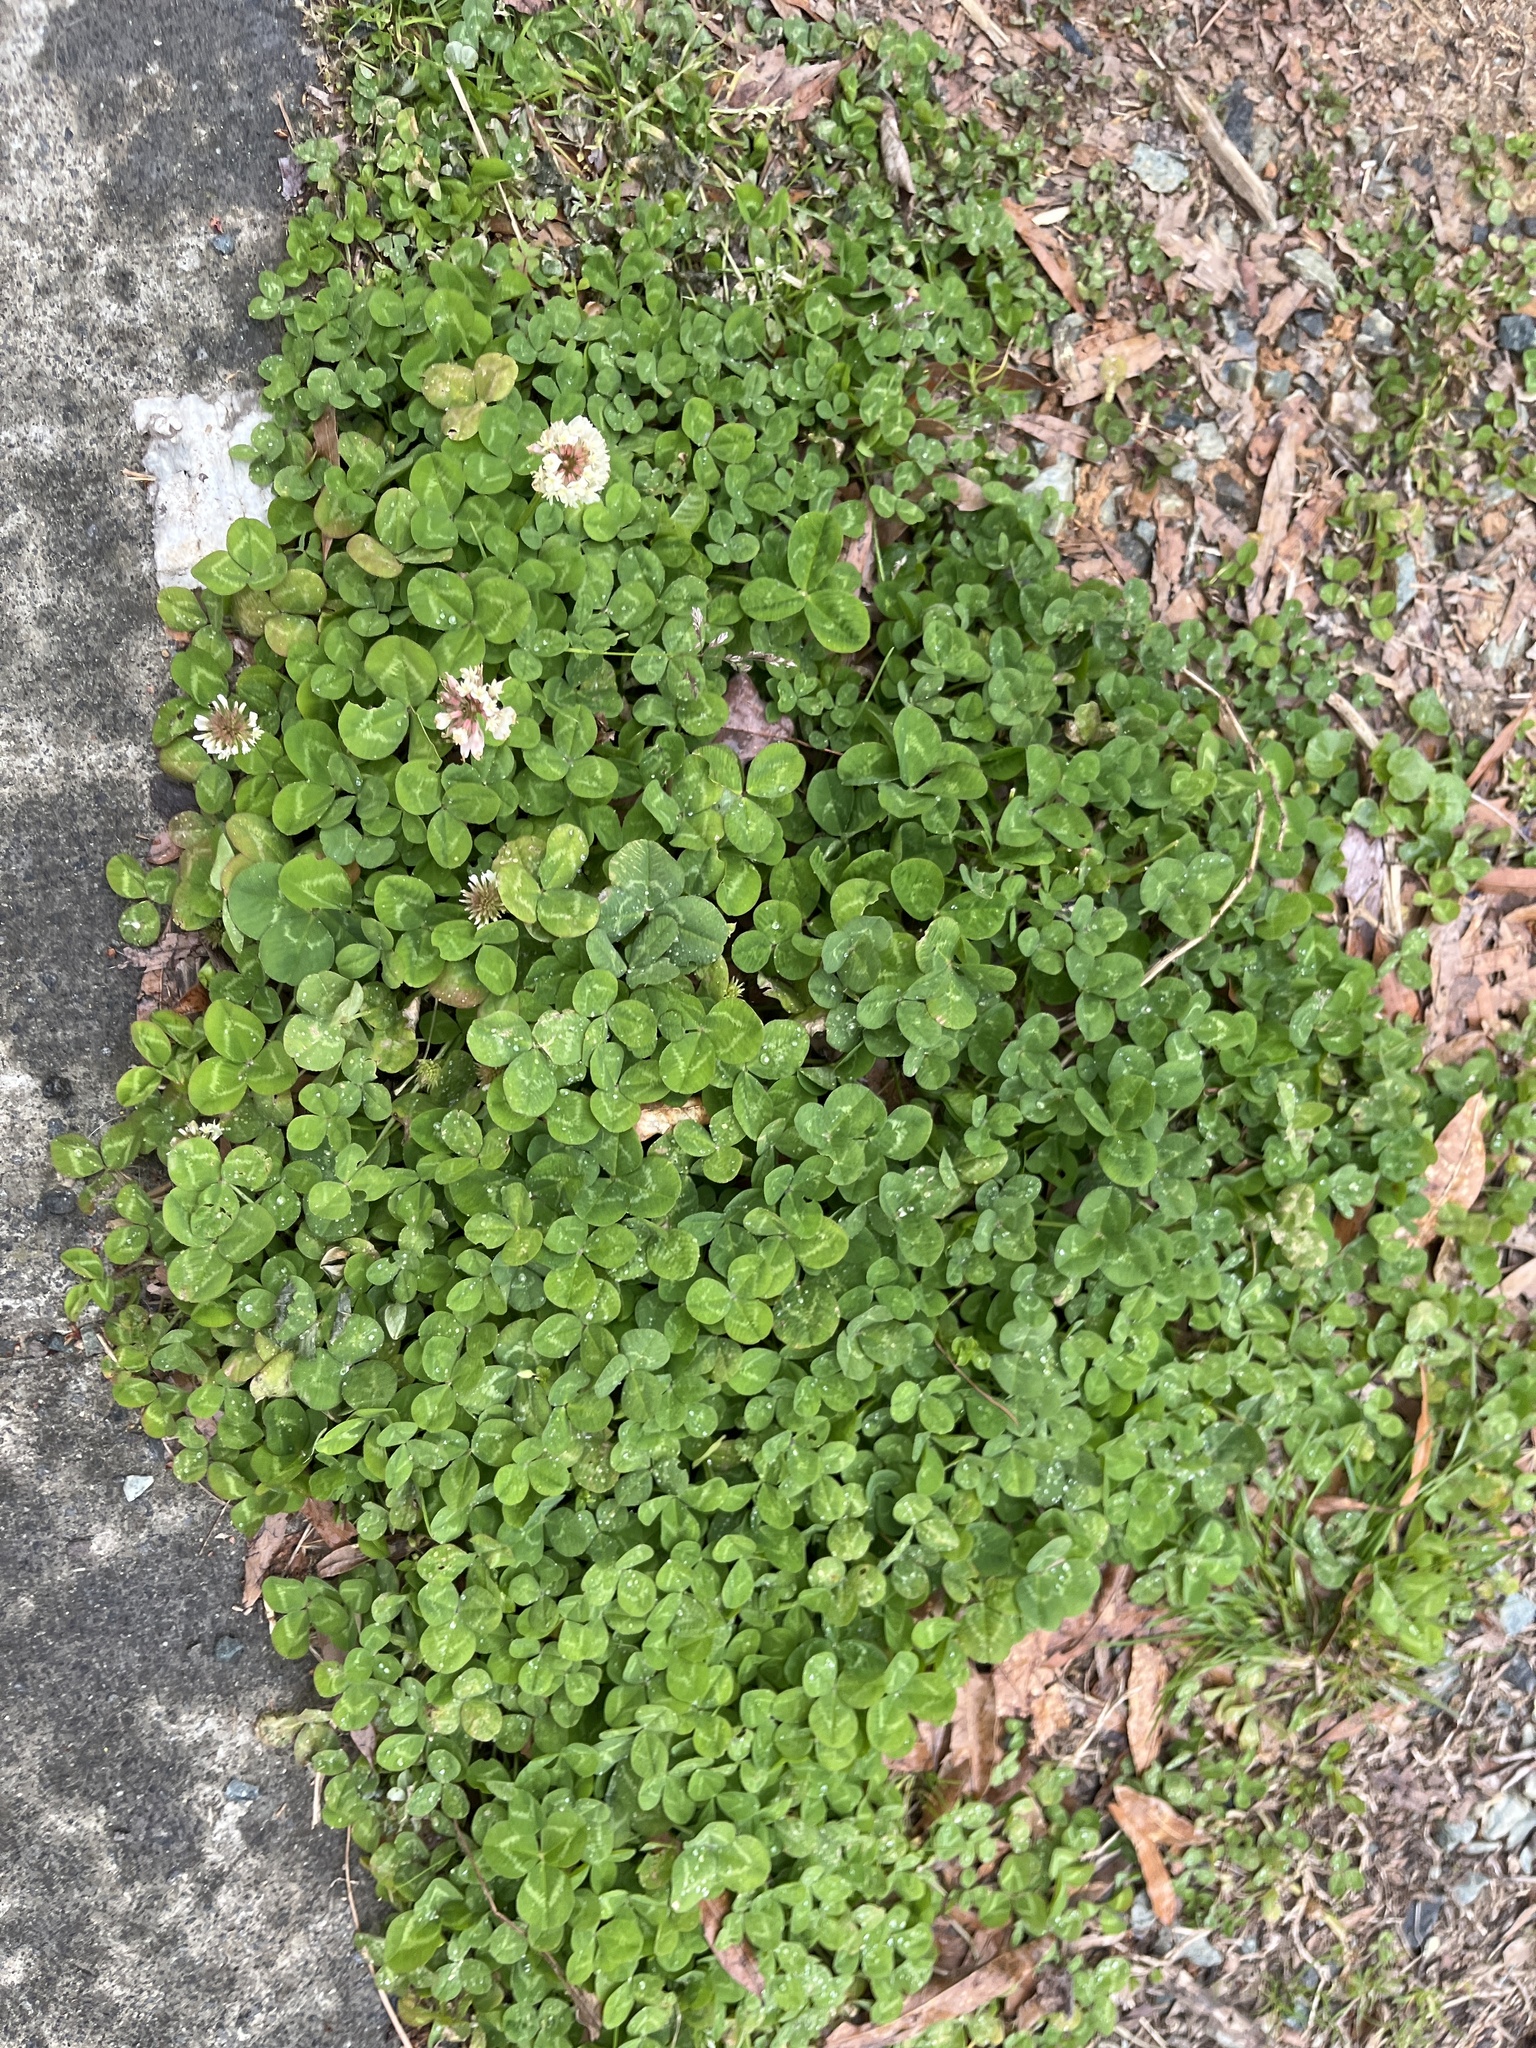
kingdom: Plantae
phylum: Tracheophyta
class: Magnoliopsida
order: Fabales
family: Fabaceae
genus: Trifolium
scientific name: Trifolium repens
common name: White clover
